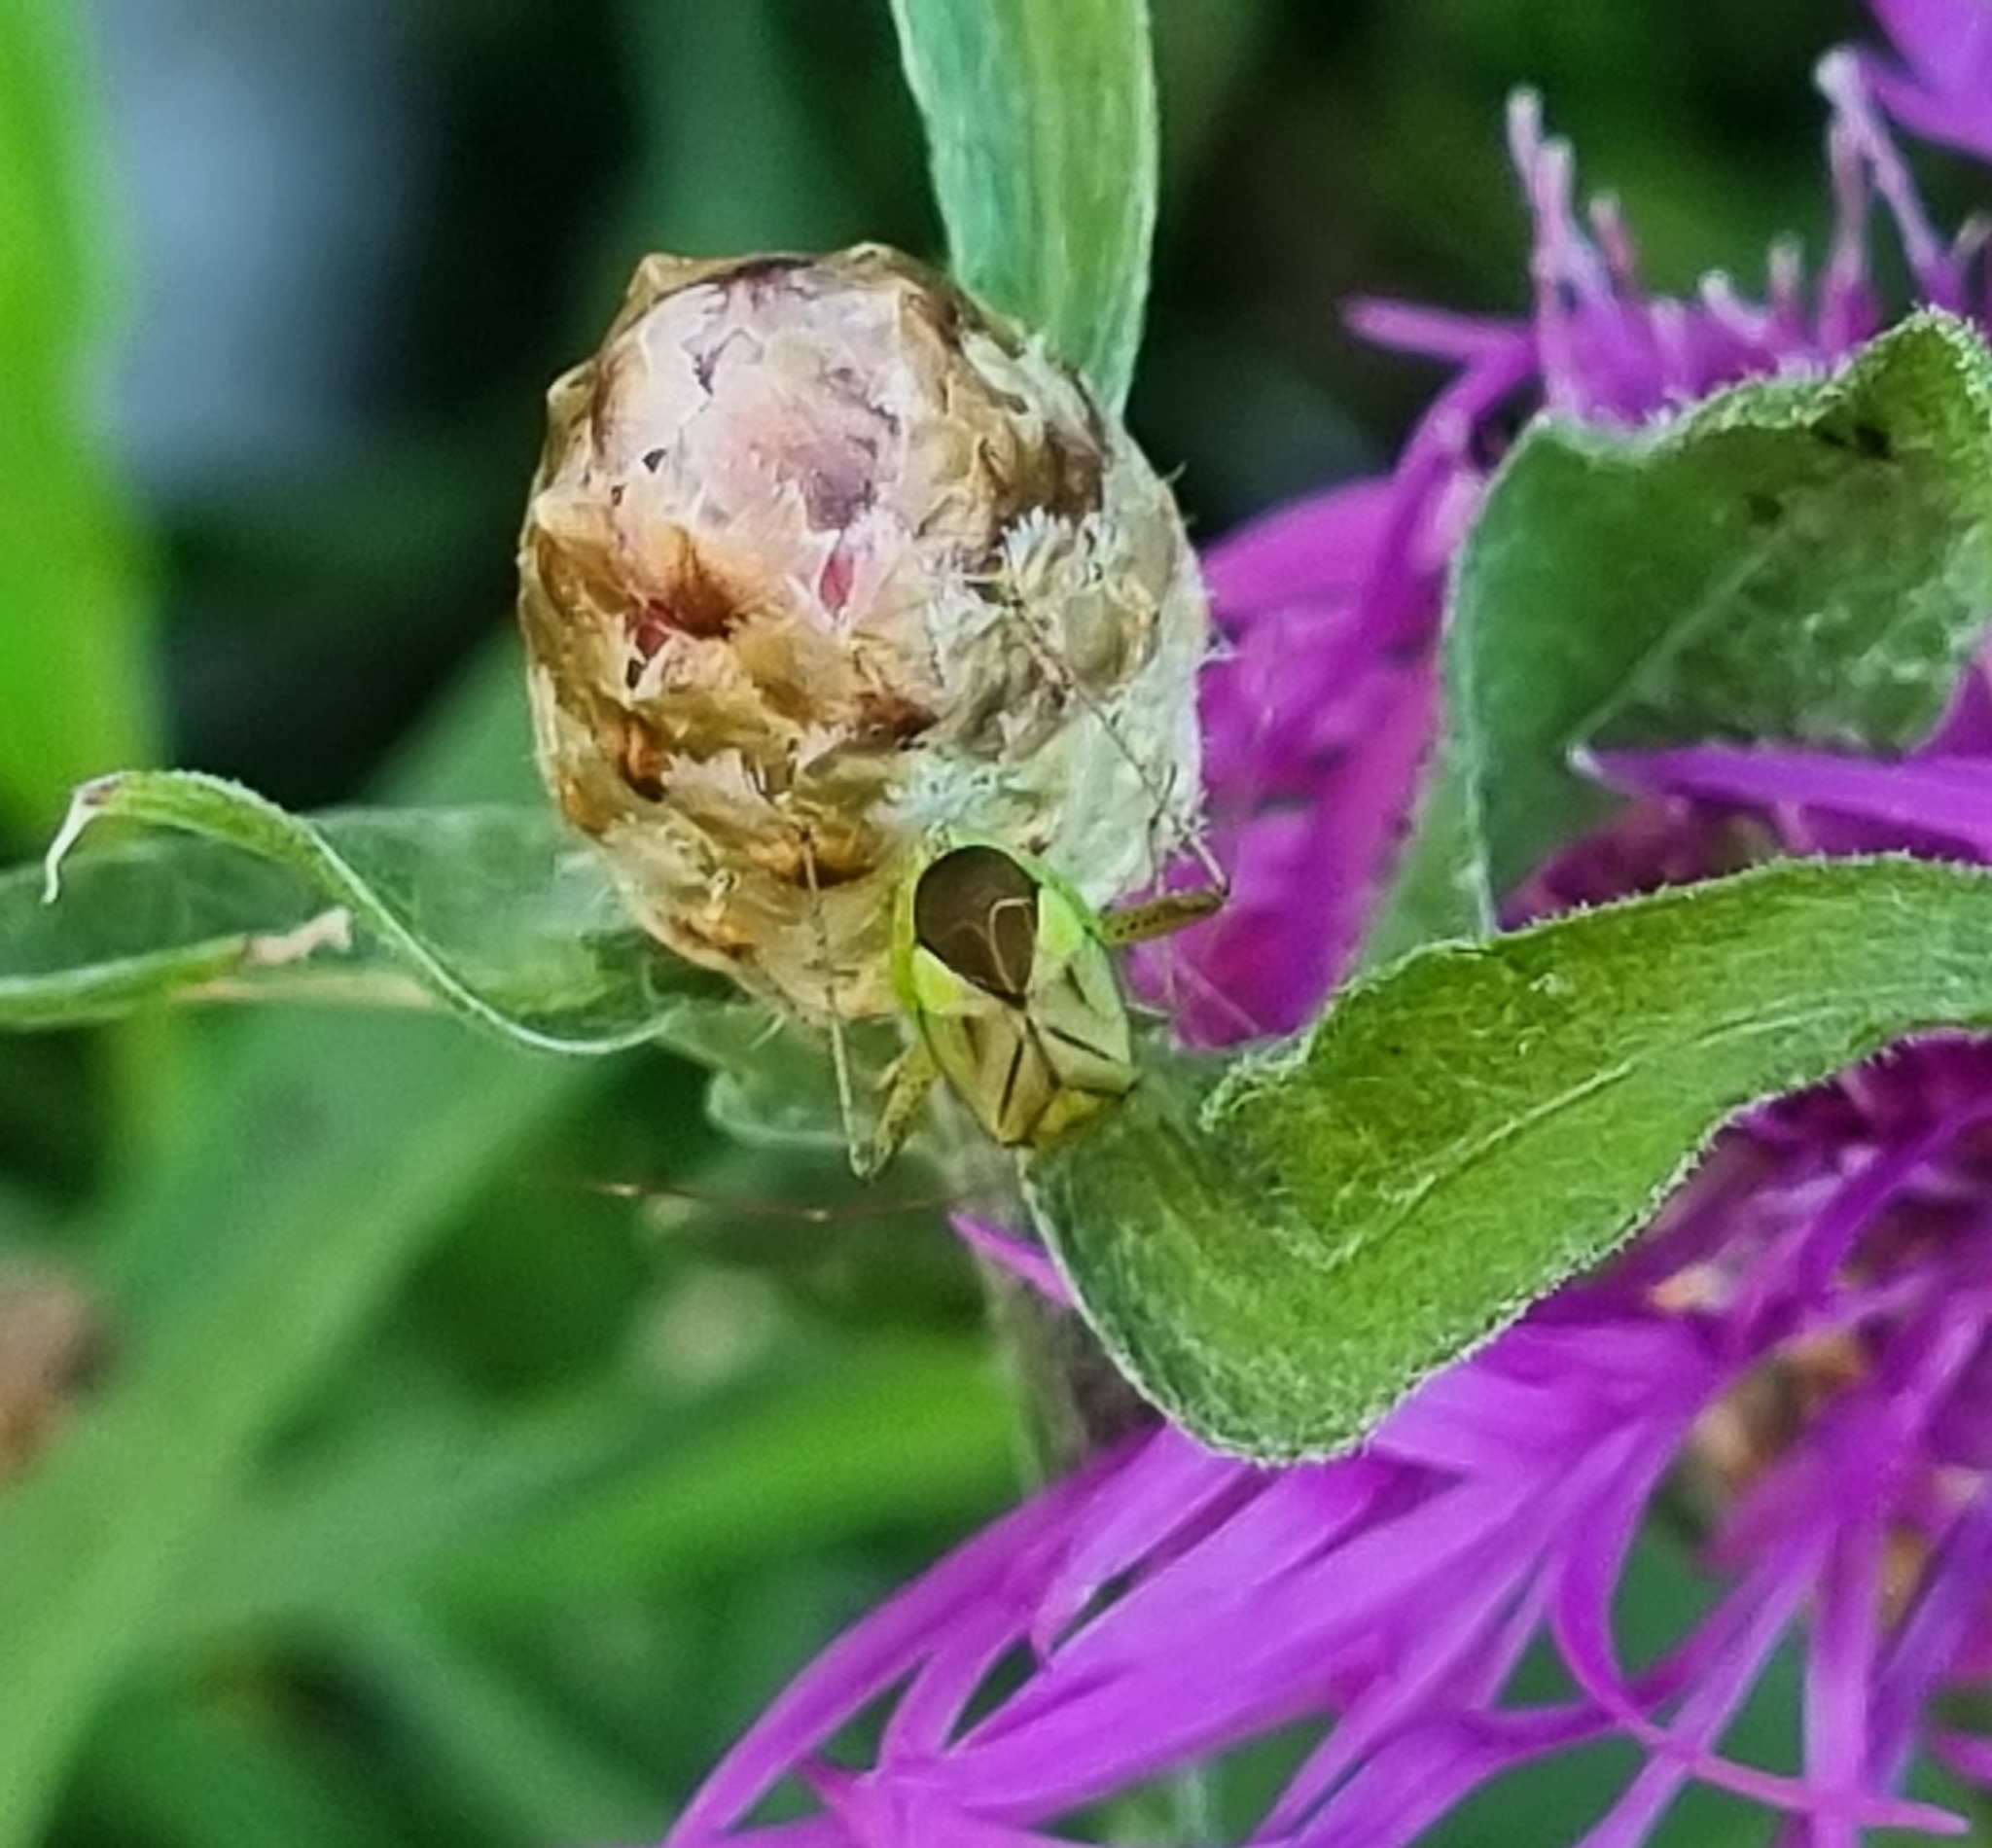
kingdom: Animalia
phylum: Arthropoda
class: Insecta
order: Hemiptera
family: Miridae
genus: Adelphocoris
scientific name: Adelphocoris quadripunctatus
